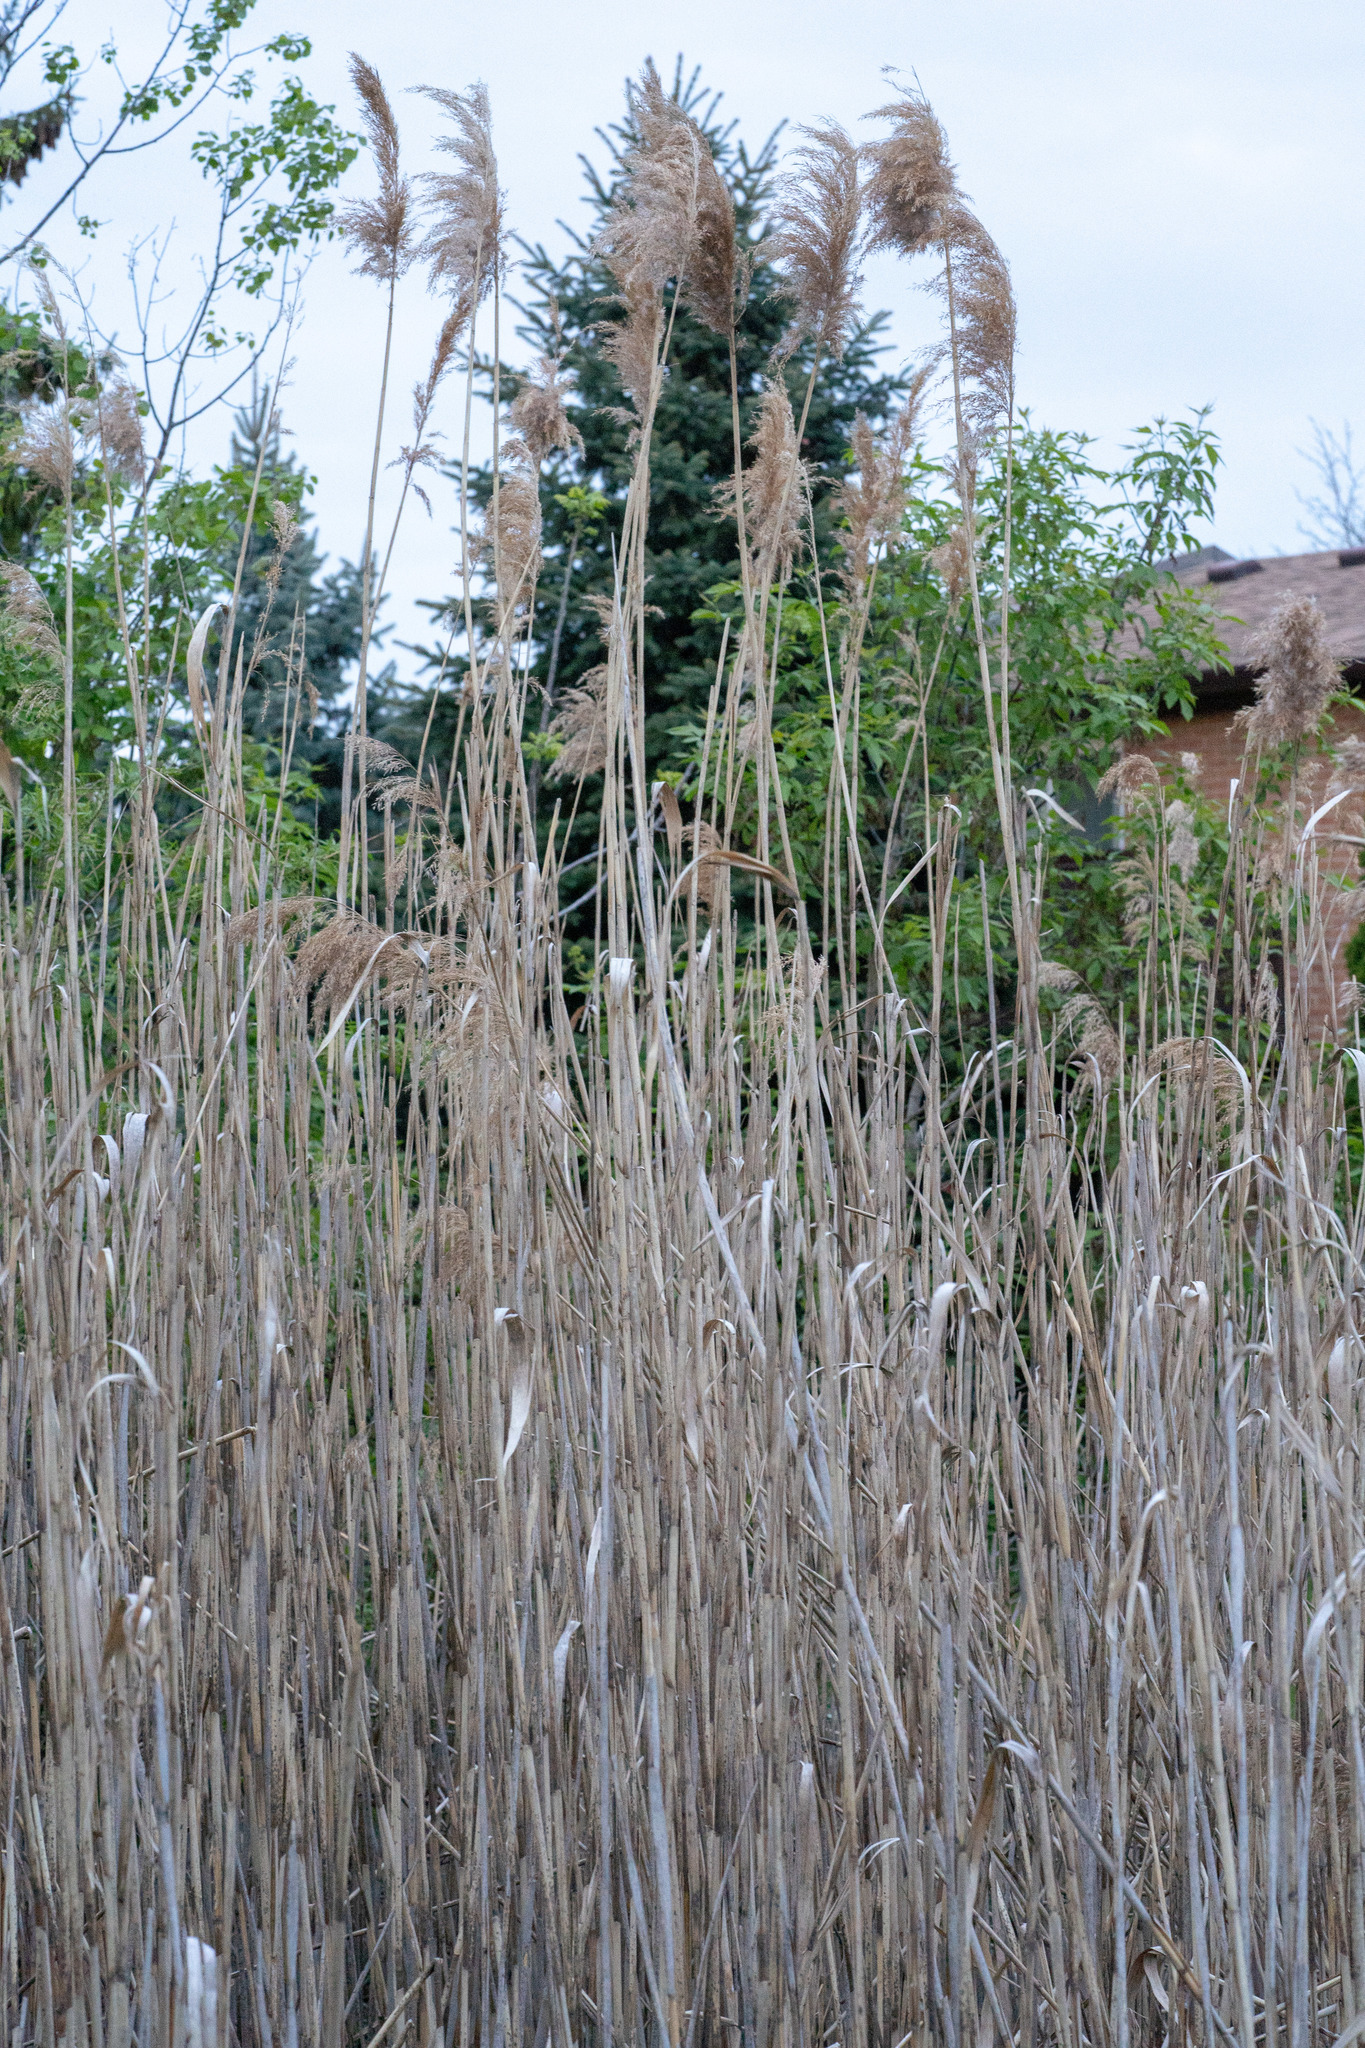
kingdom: Plantae
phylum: Tracheophyta
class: Liliopsida
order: Poales
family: Poaceae
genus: Phragmites
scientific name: Phragmites australis
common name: Common reed
